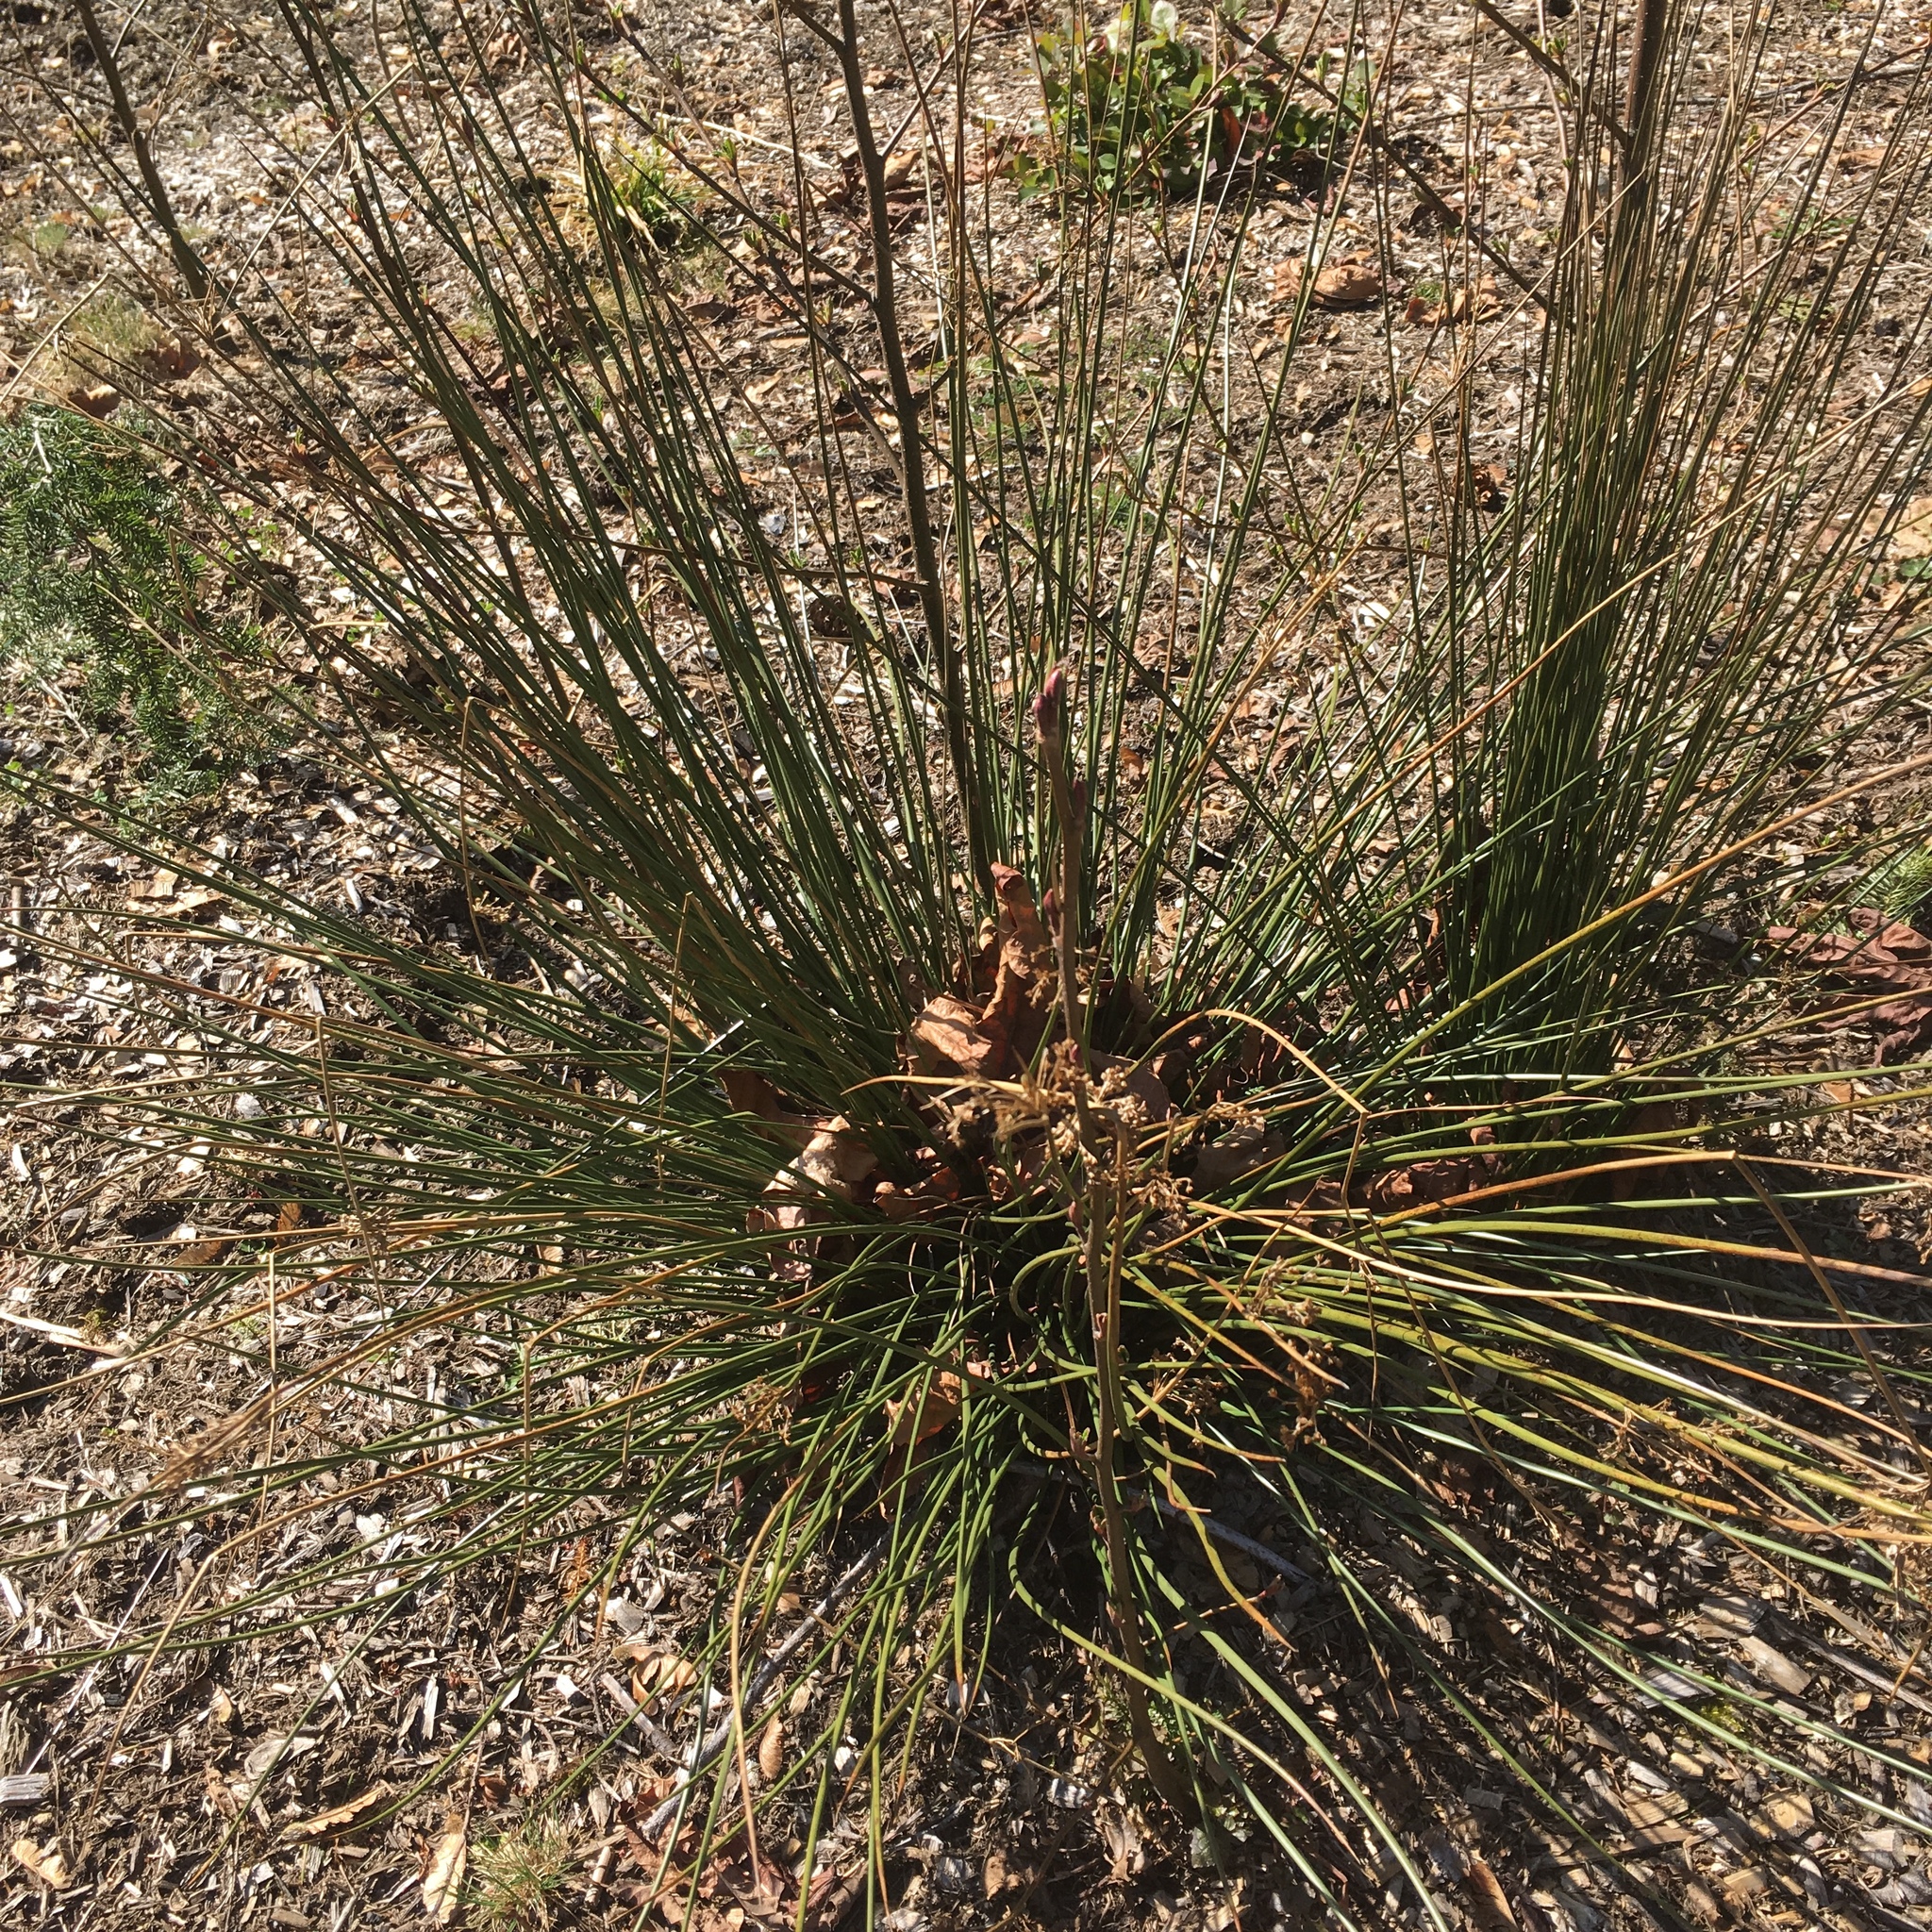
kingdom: Plantae
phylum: Tracheophyta
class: Liliopsida
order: Poales
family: Juncaceae
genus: Juncus
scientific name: Juncus effusus
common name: Soft rush
